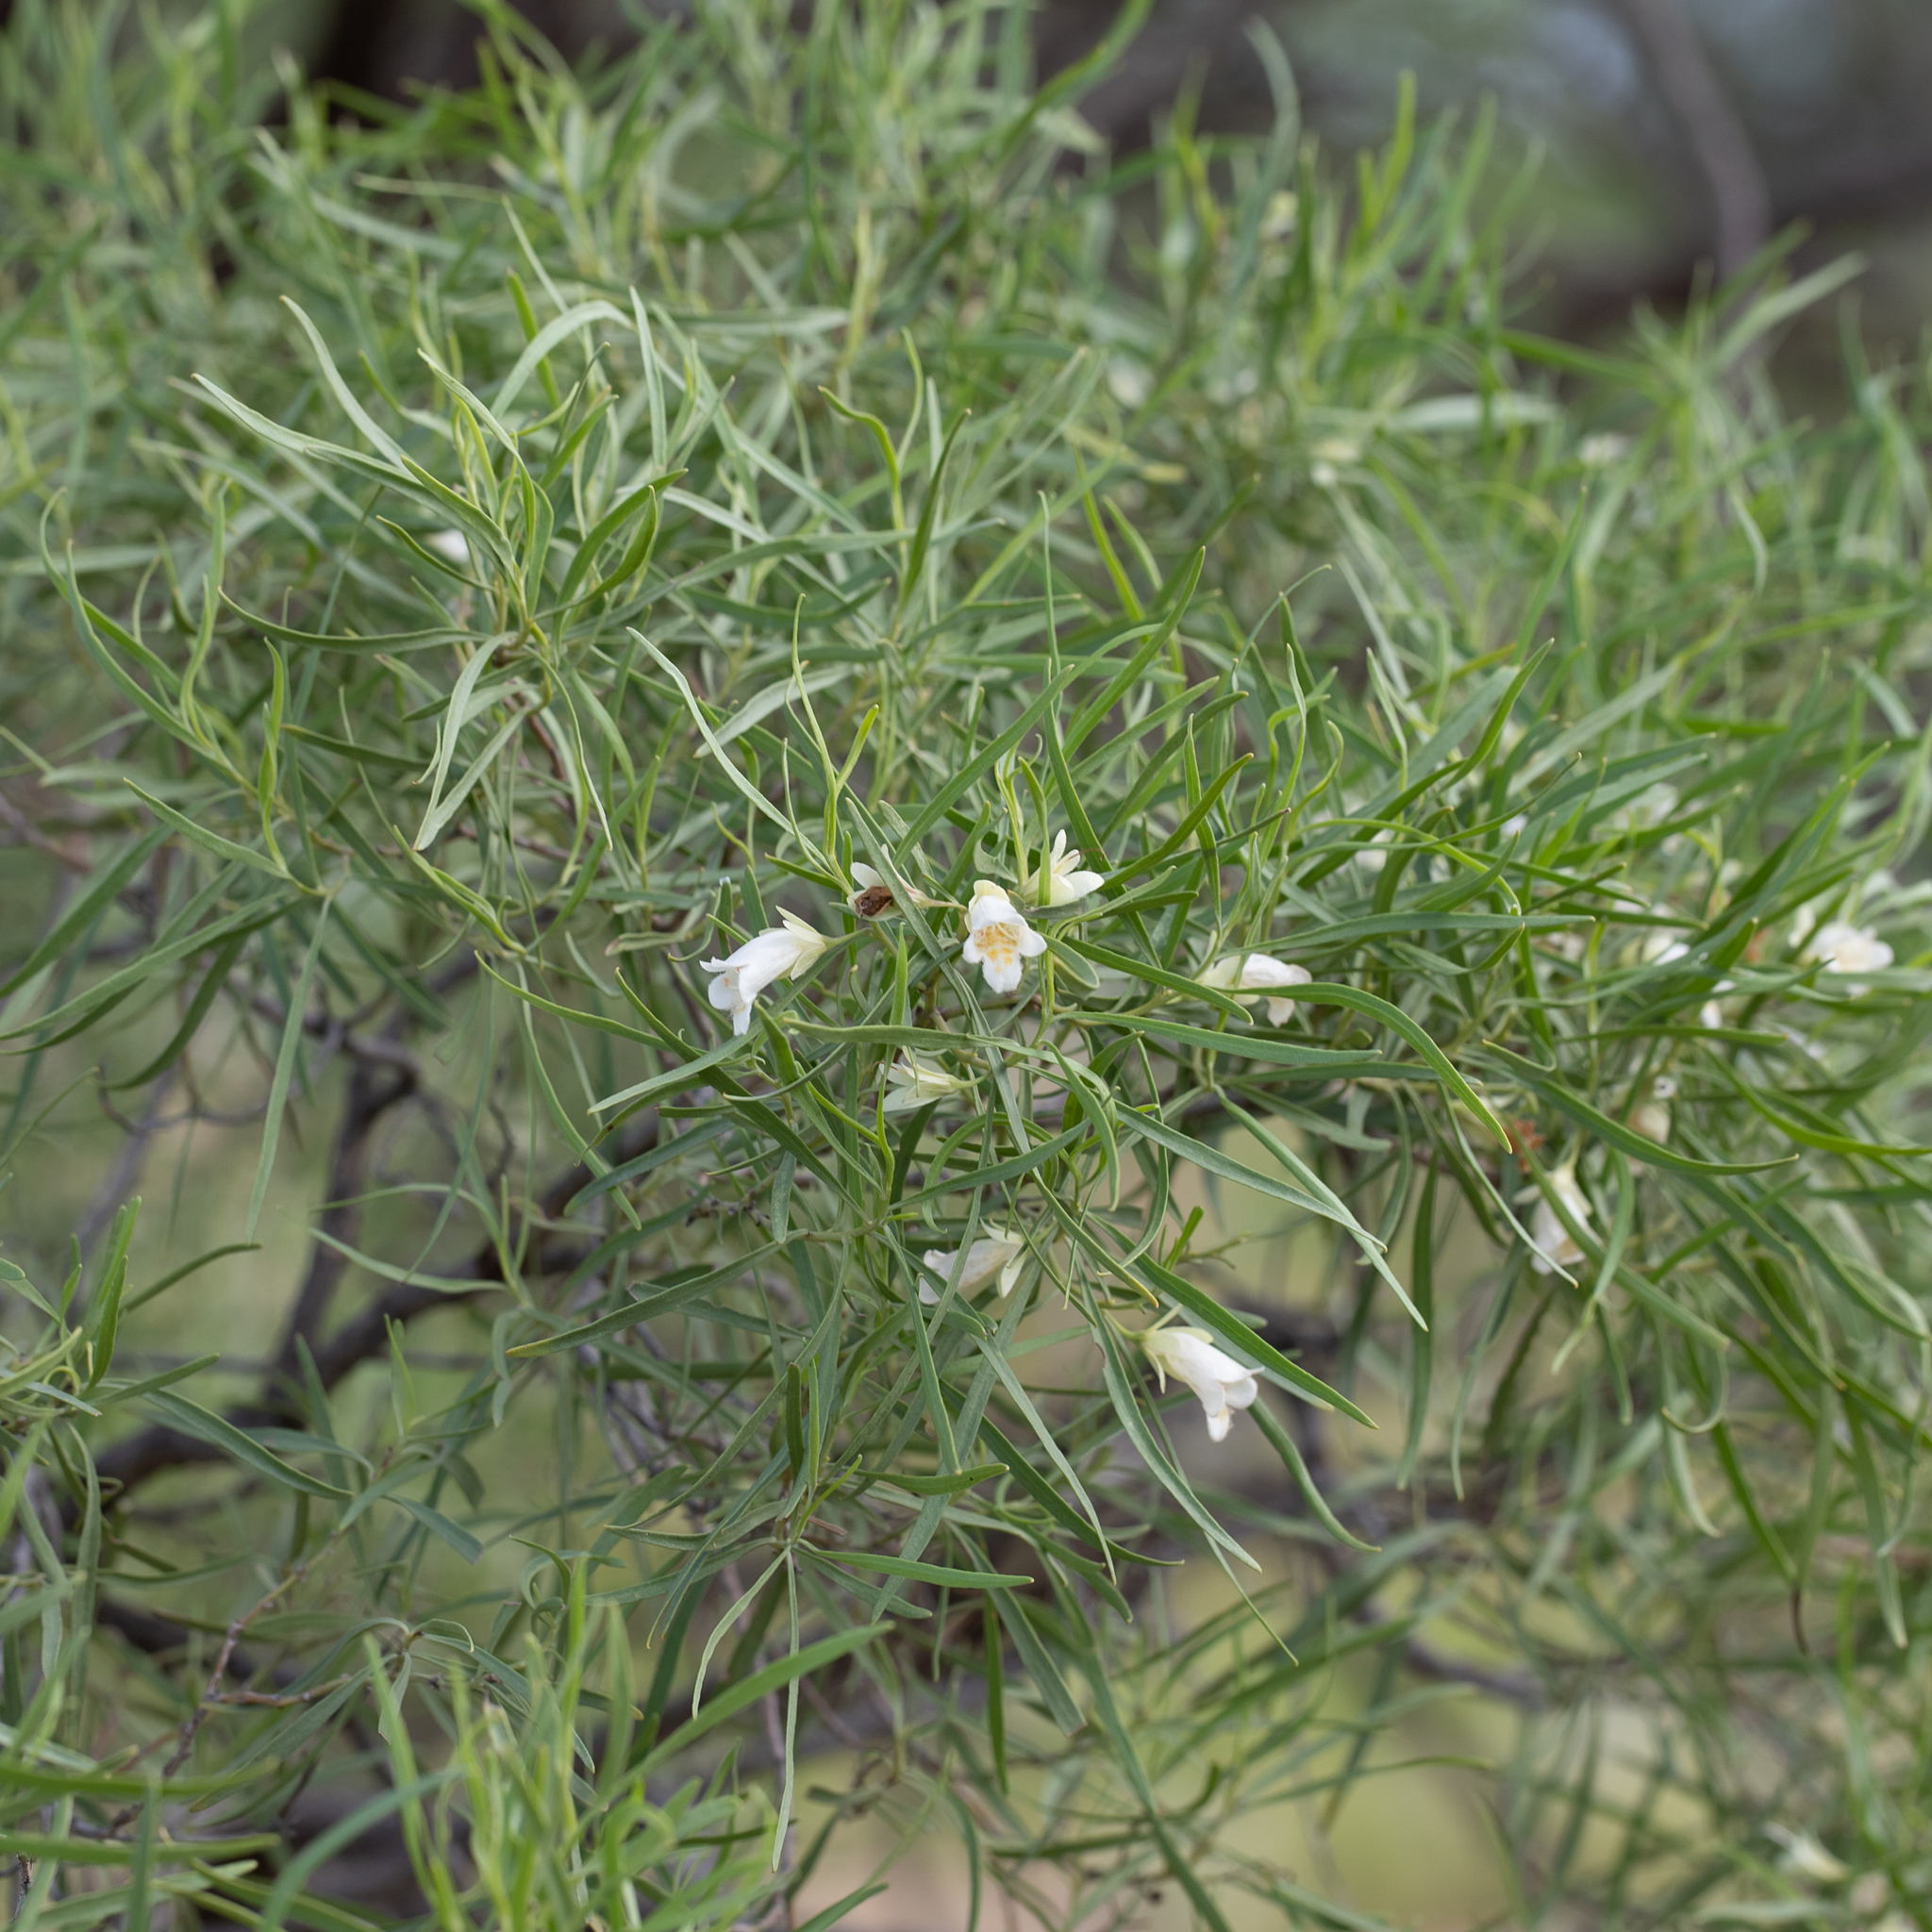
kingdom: Plantae
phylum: Tracheophyta
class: Magnoliopsida
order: Lamiales
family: Scrophulariaceae
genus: Eremophila
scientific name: Eremophila mitchellii
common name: Bastard-sandalwood
